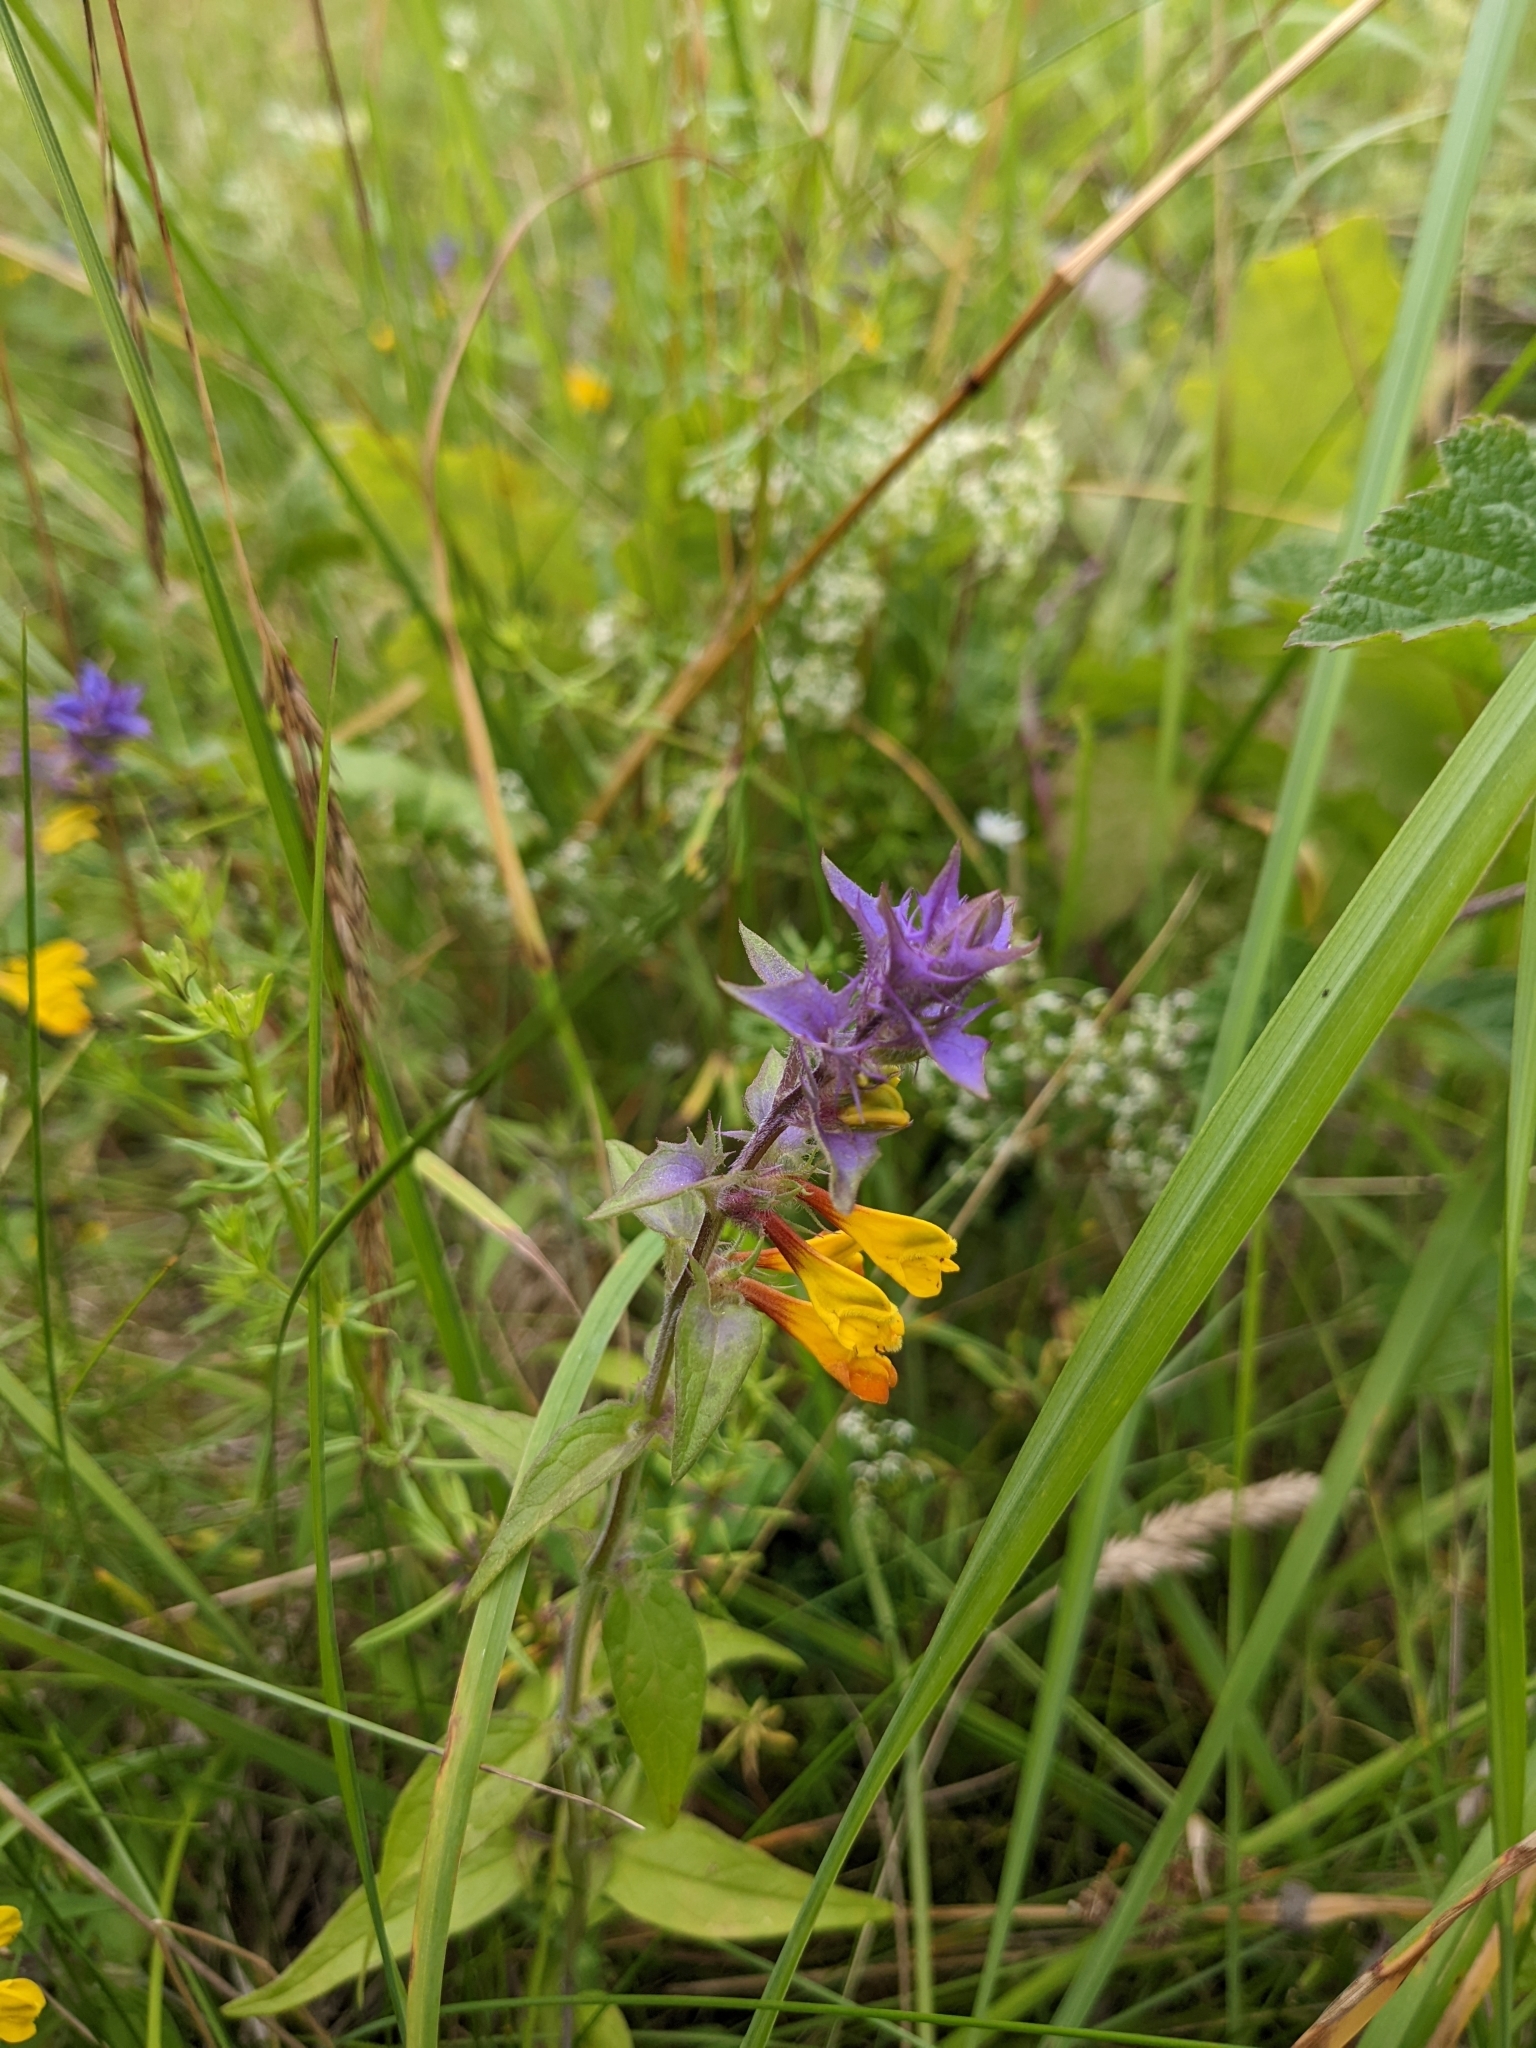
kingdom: Plantae
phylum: Tracheophyta
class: Magnoliopsida
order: Lamiales
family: Orobanchaceae
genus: Melampyrum
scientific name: Melampyrum nemorosum
